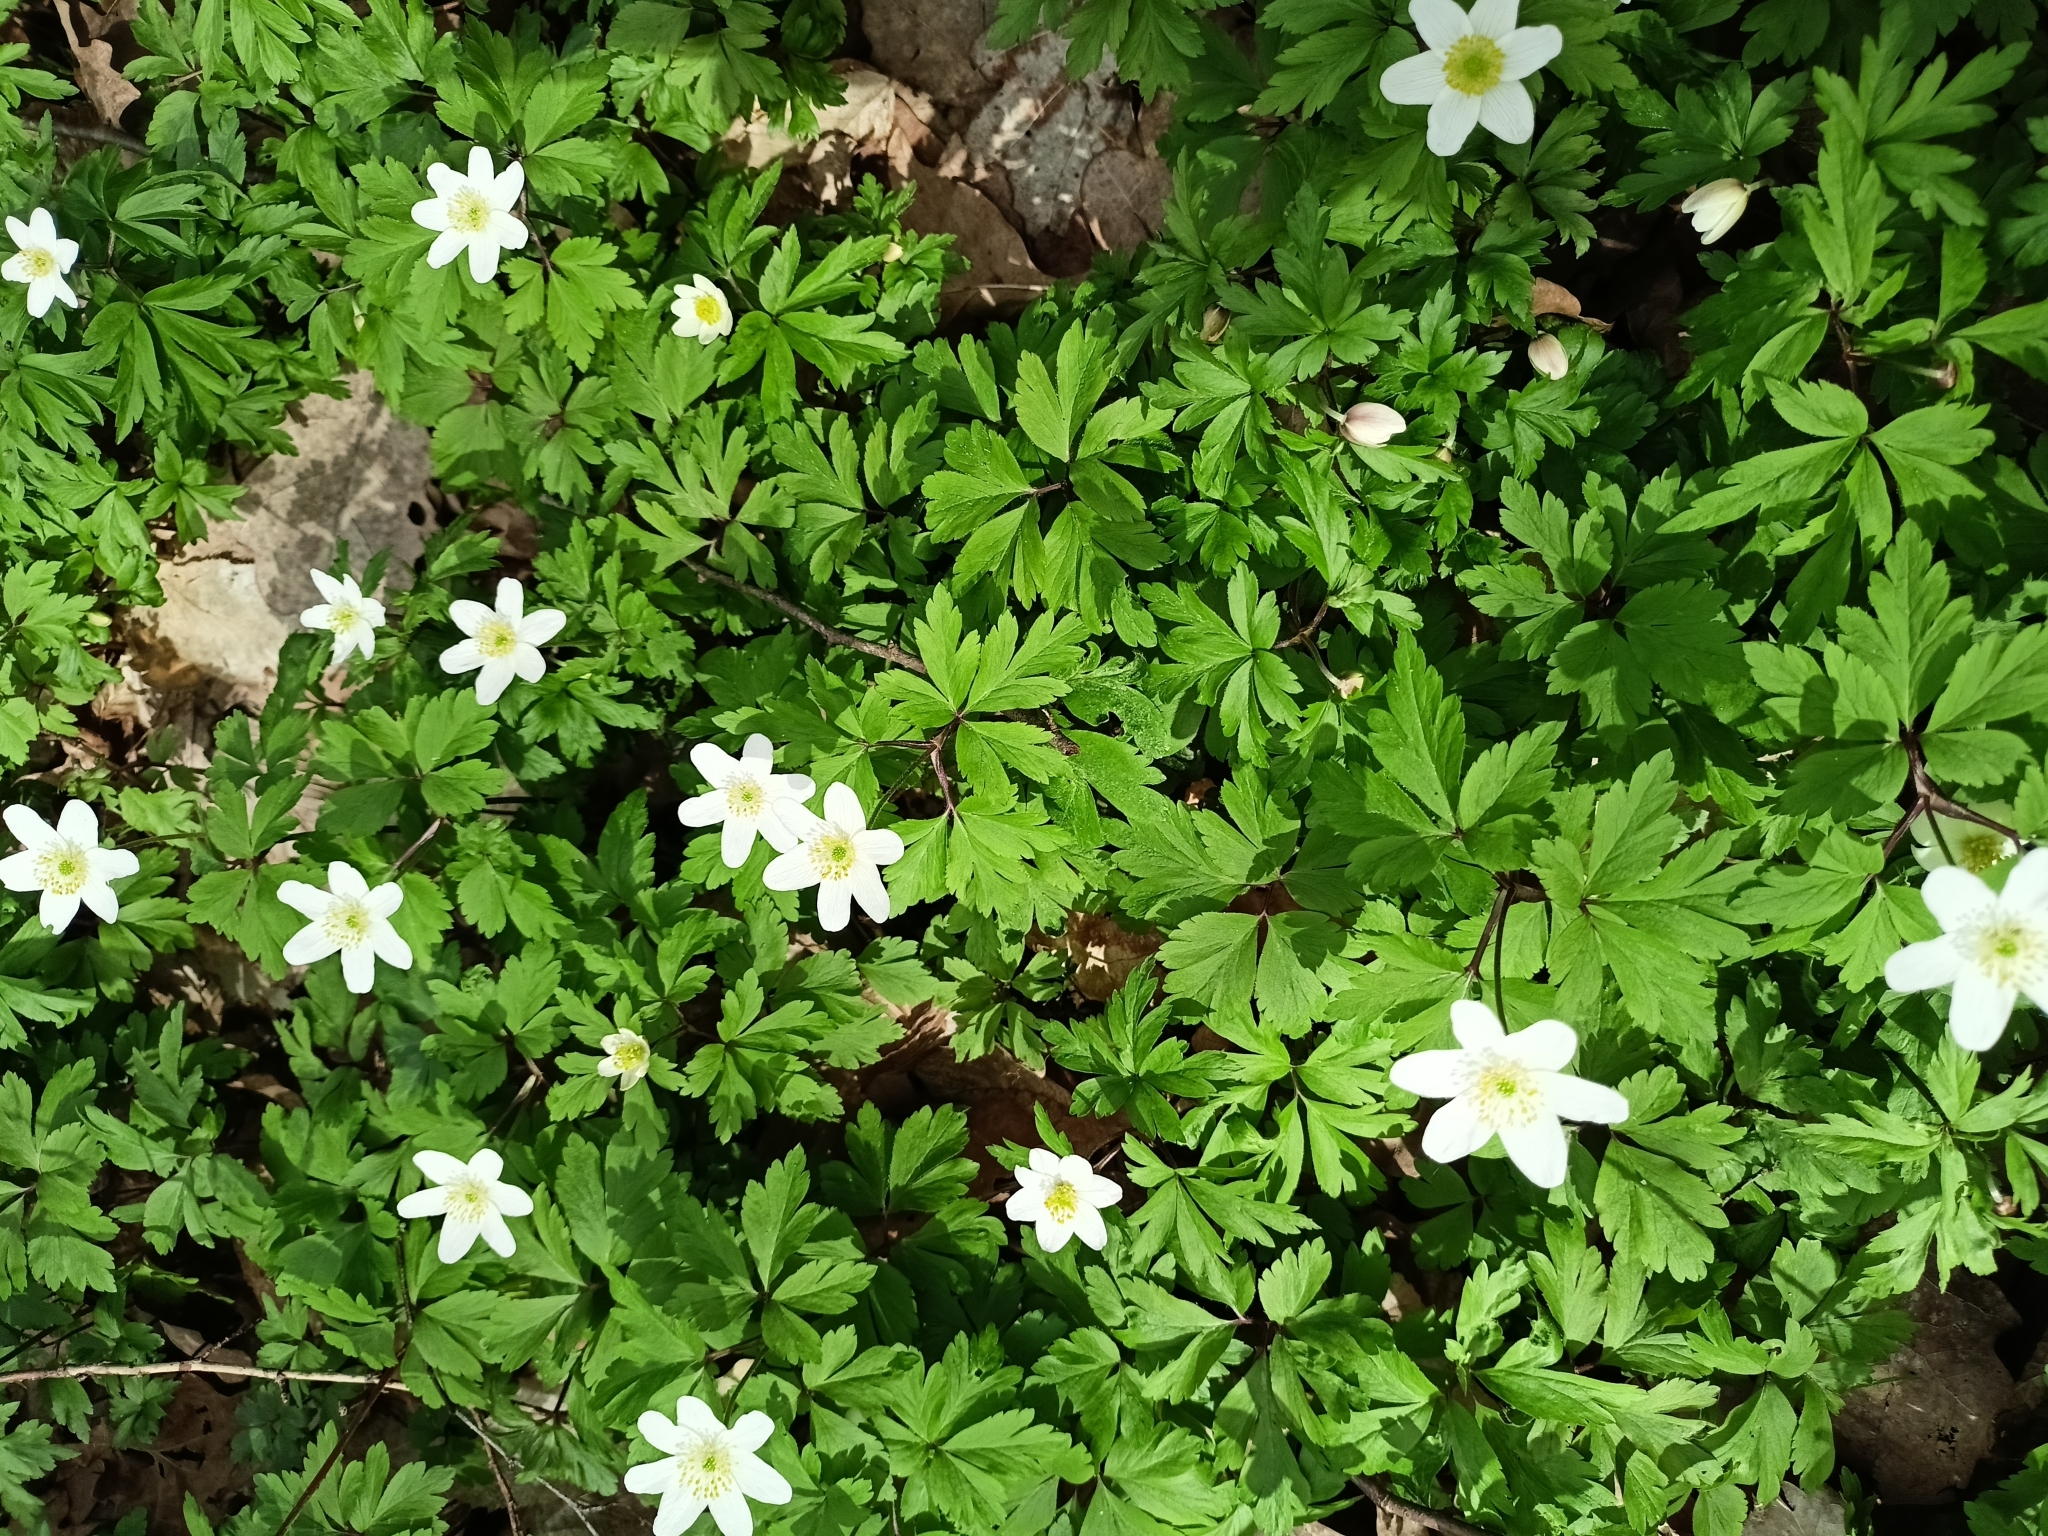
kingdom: Plantae
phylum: Tracheophyta
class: Magnoliopsida
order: Ranunculales
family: Ranunculaceae
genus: Anemone
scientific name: Anemone nemorosa
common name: Wood anemone
